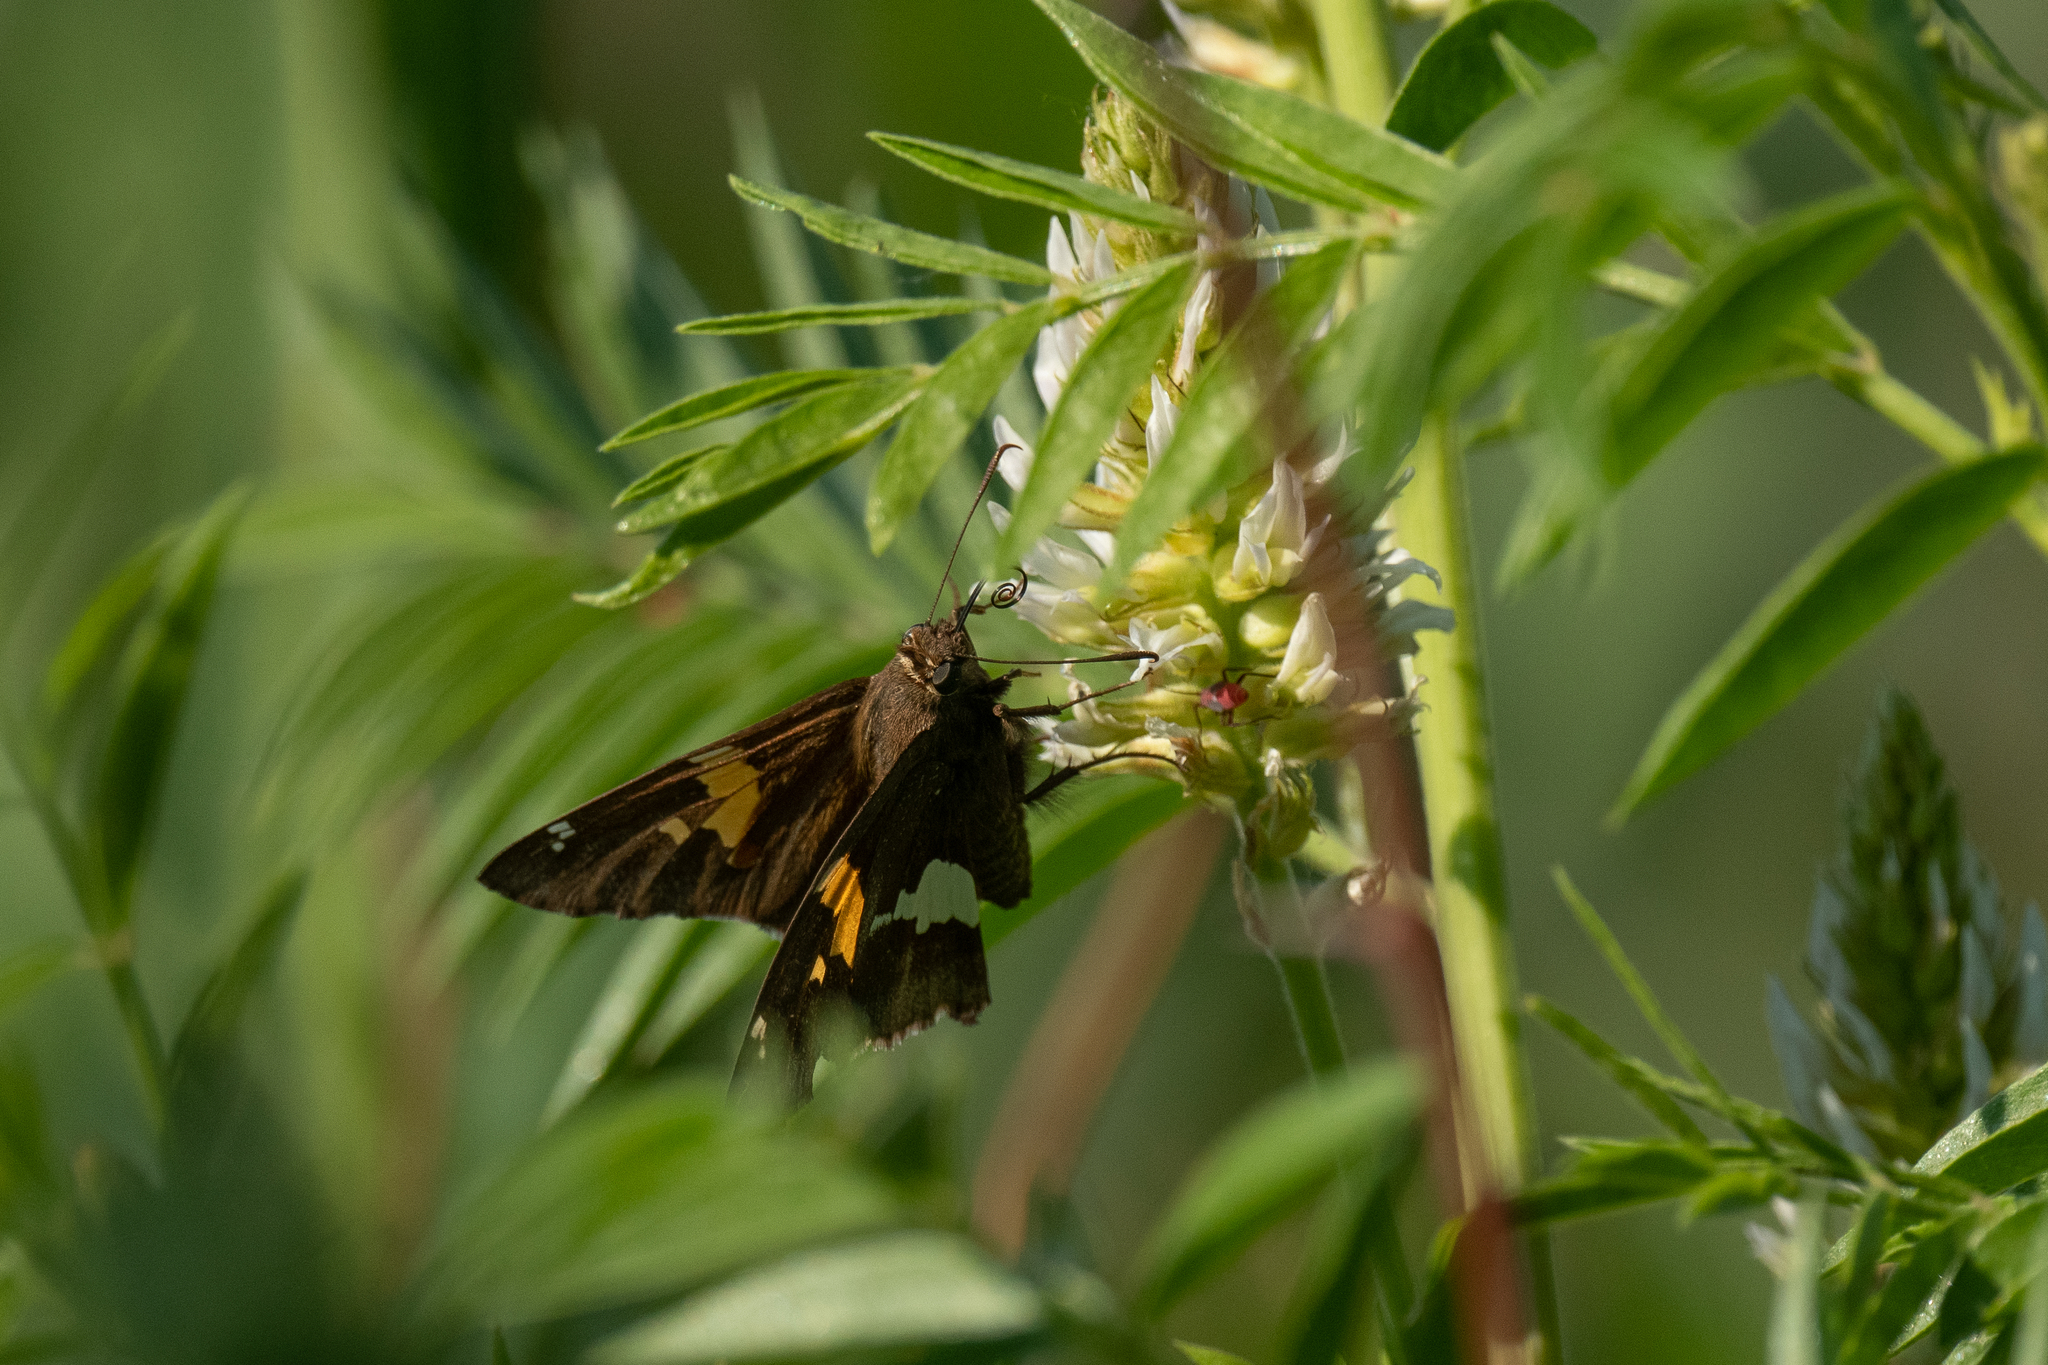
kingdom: Animalia
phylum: Arthropoda
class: Insecta
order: Lepidoptera
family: Hesperiidae
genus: Epargyreus
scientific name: Epargyreus clarus
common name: Silver-spotted skipper
